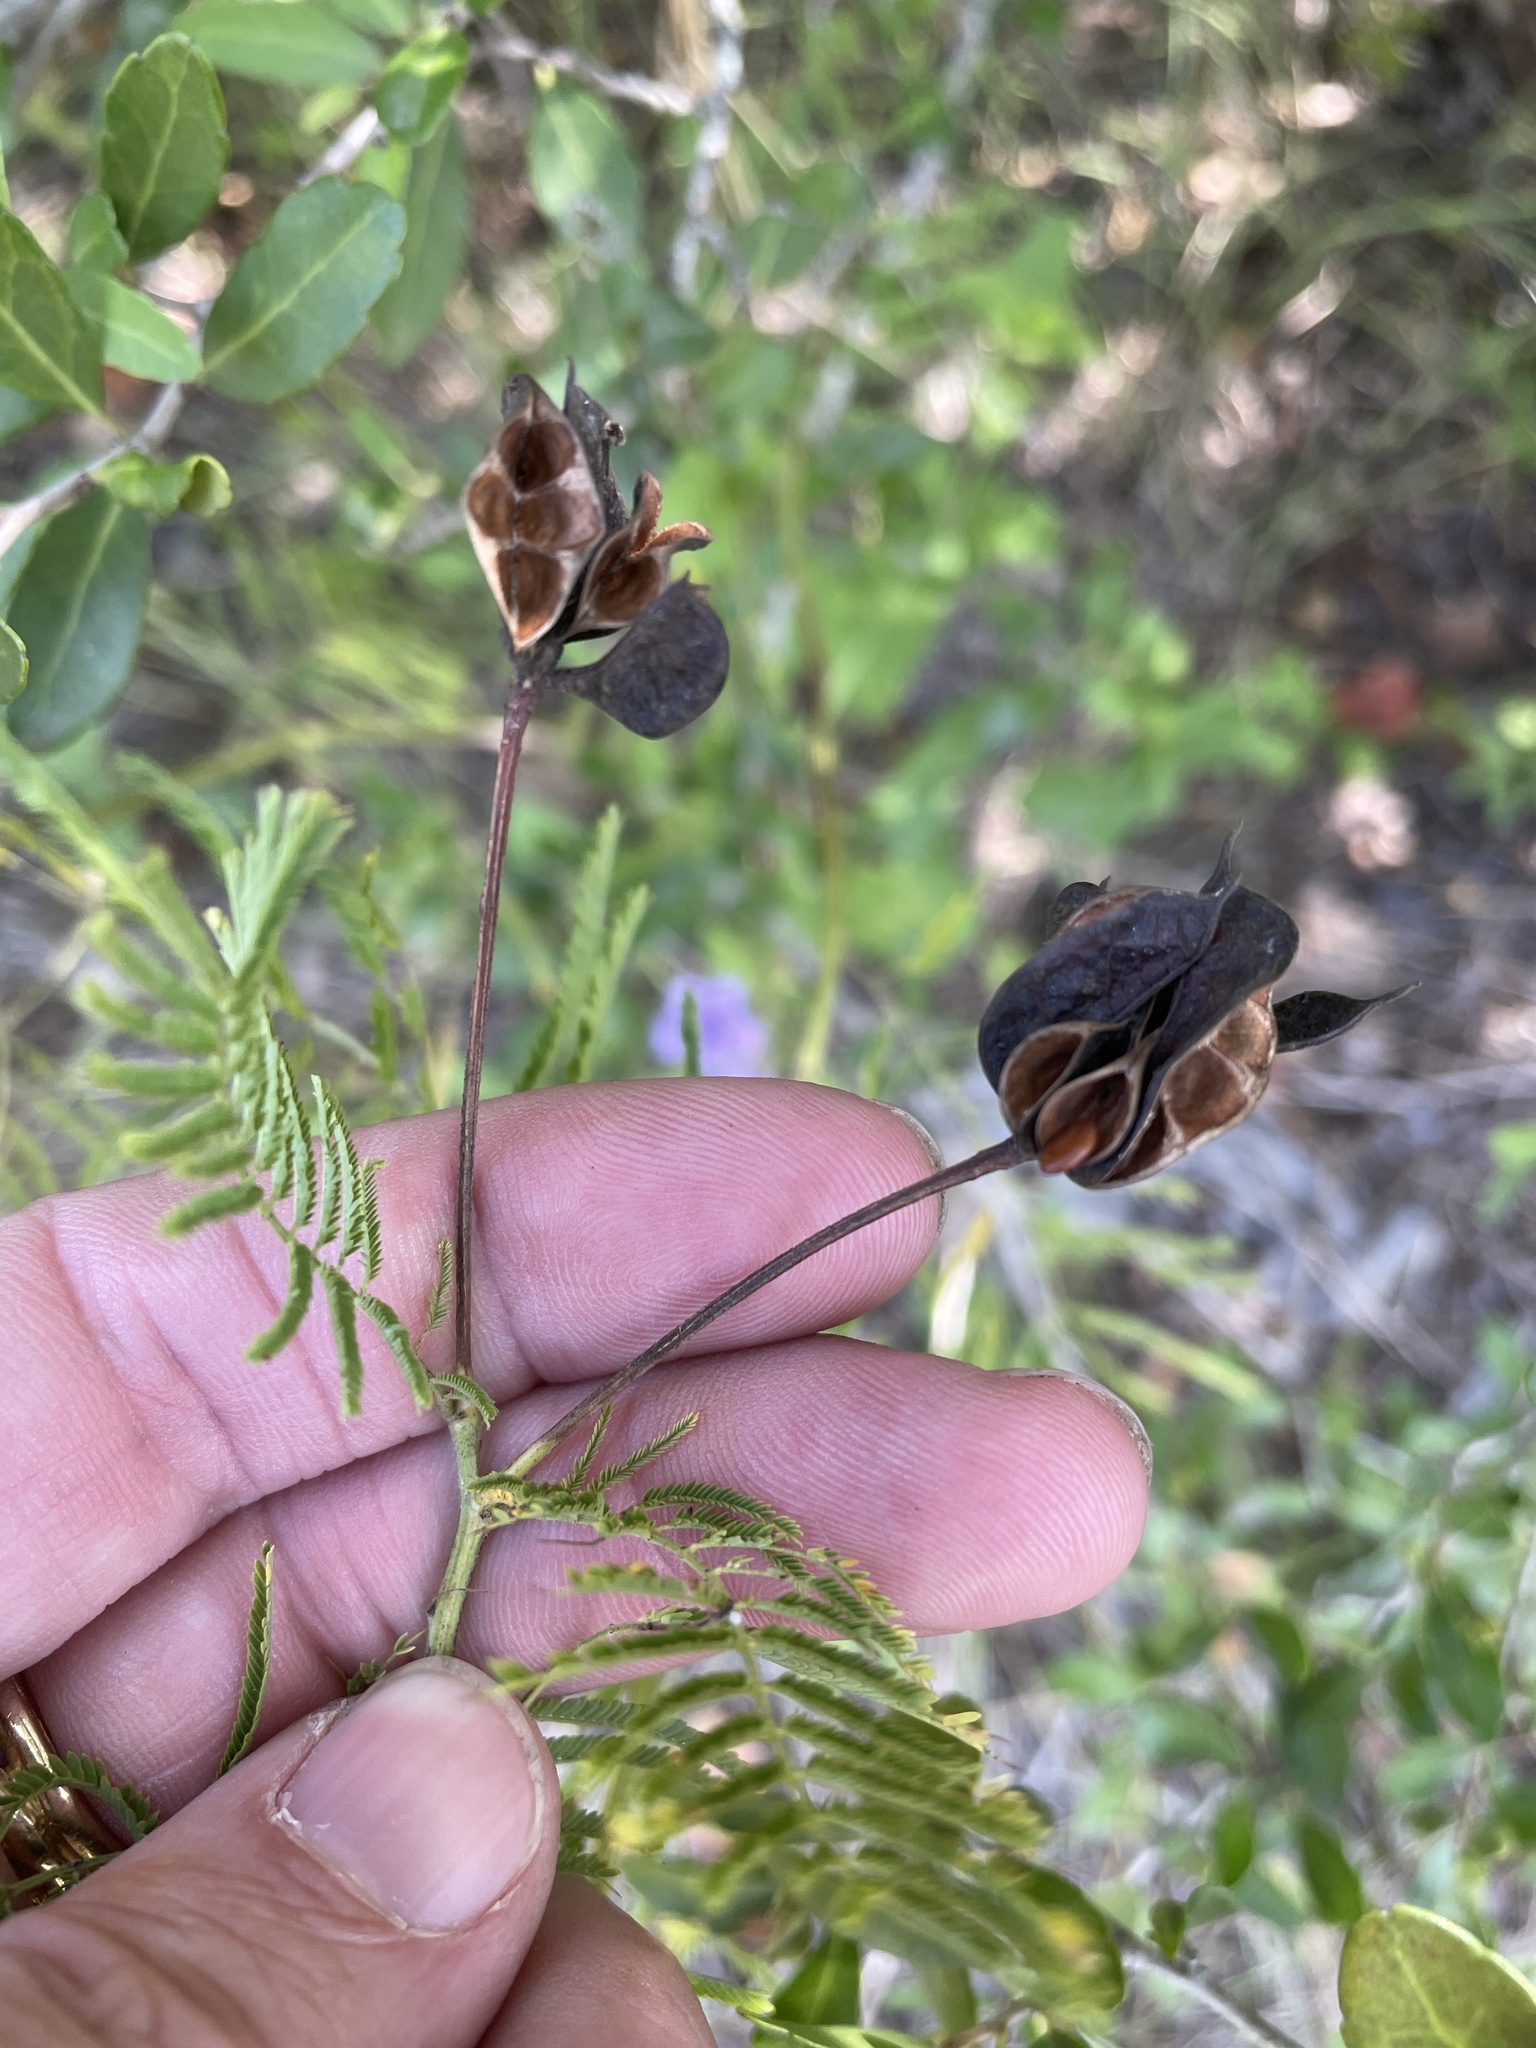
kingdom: Plantae
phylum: Tracheophyta
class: Magnoliopsida
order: Fabales
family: Fabaceae
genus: Desmanthus
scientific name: Desmanthus illinoensis
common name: Illinois bundle-flower
